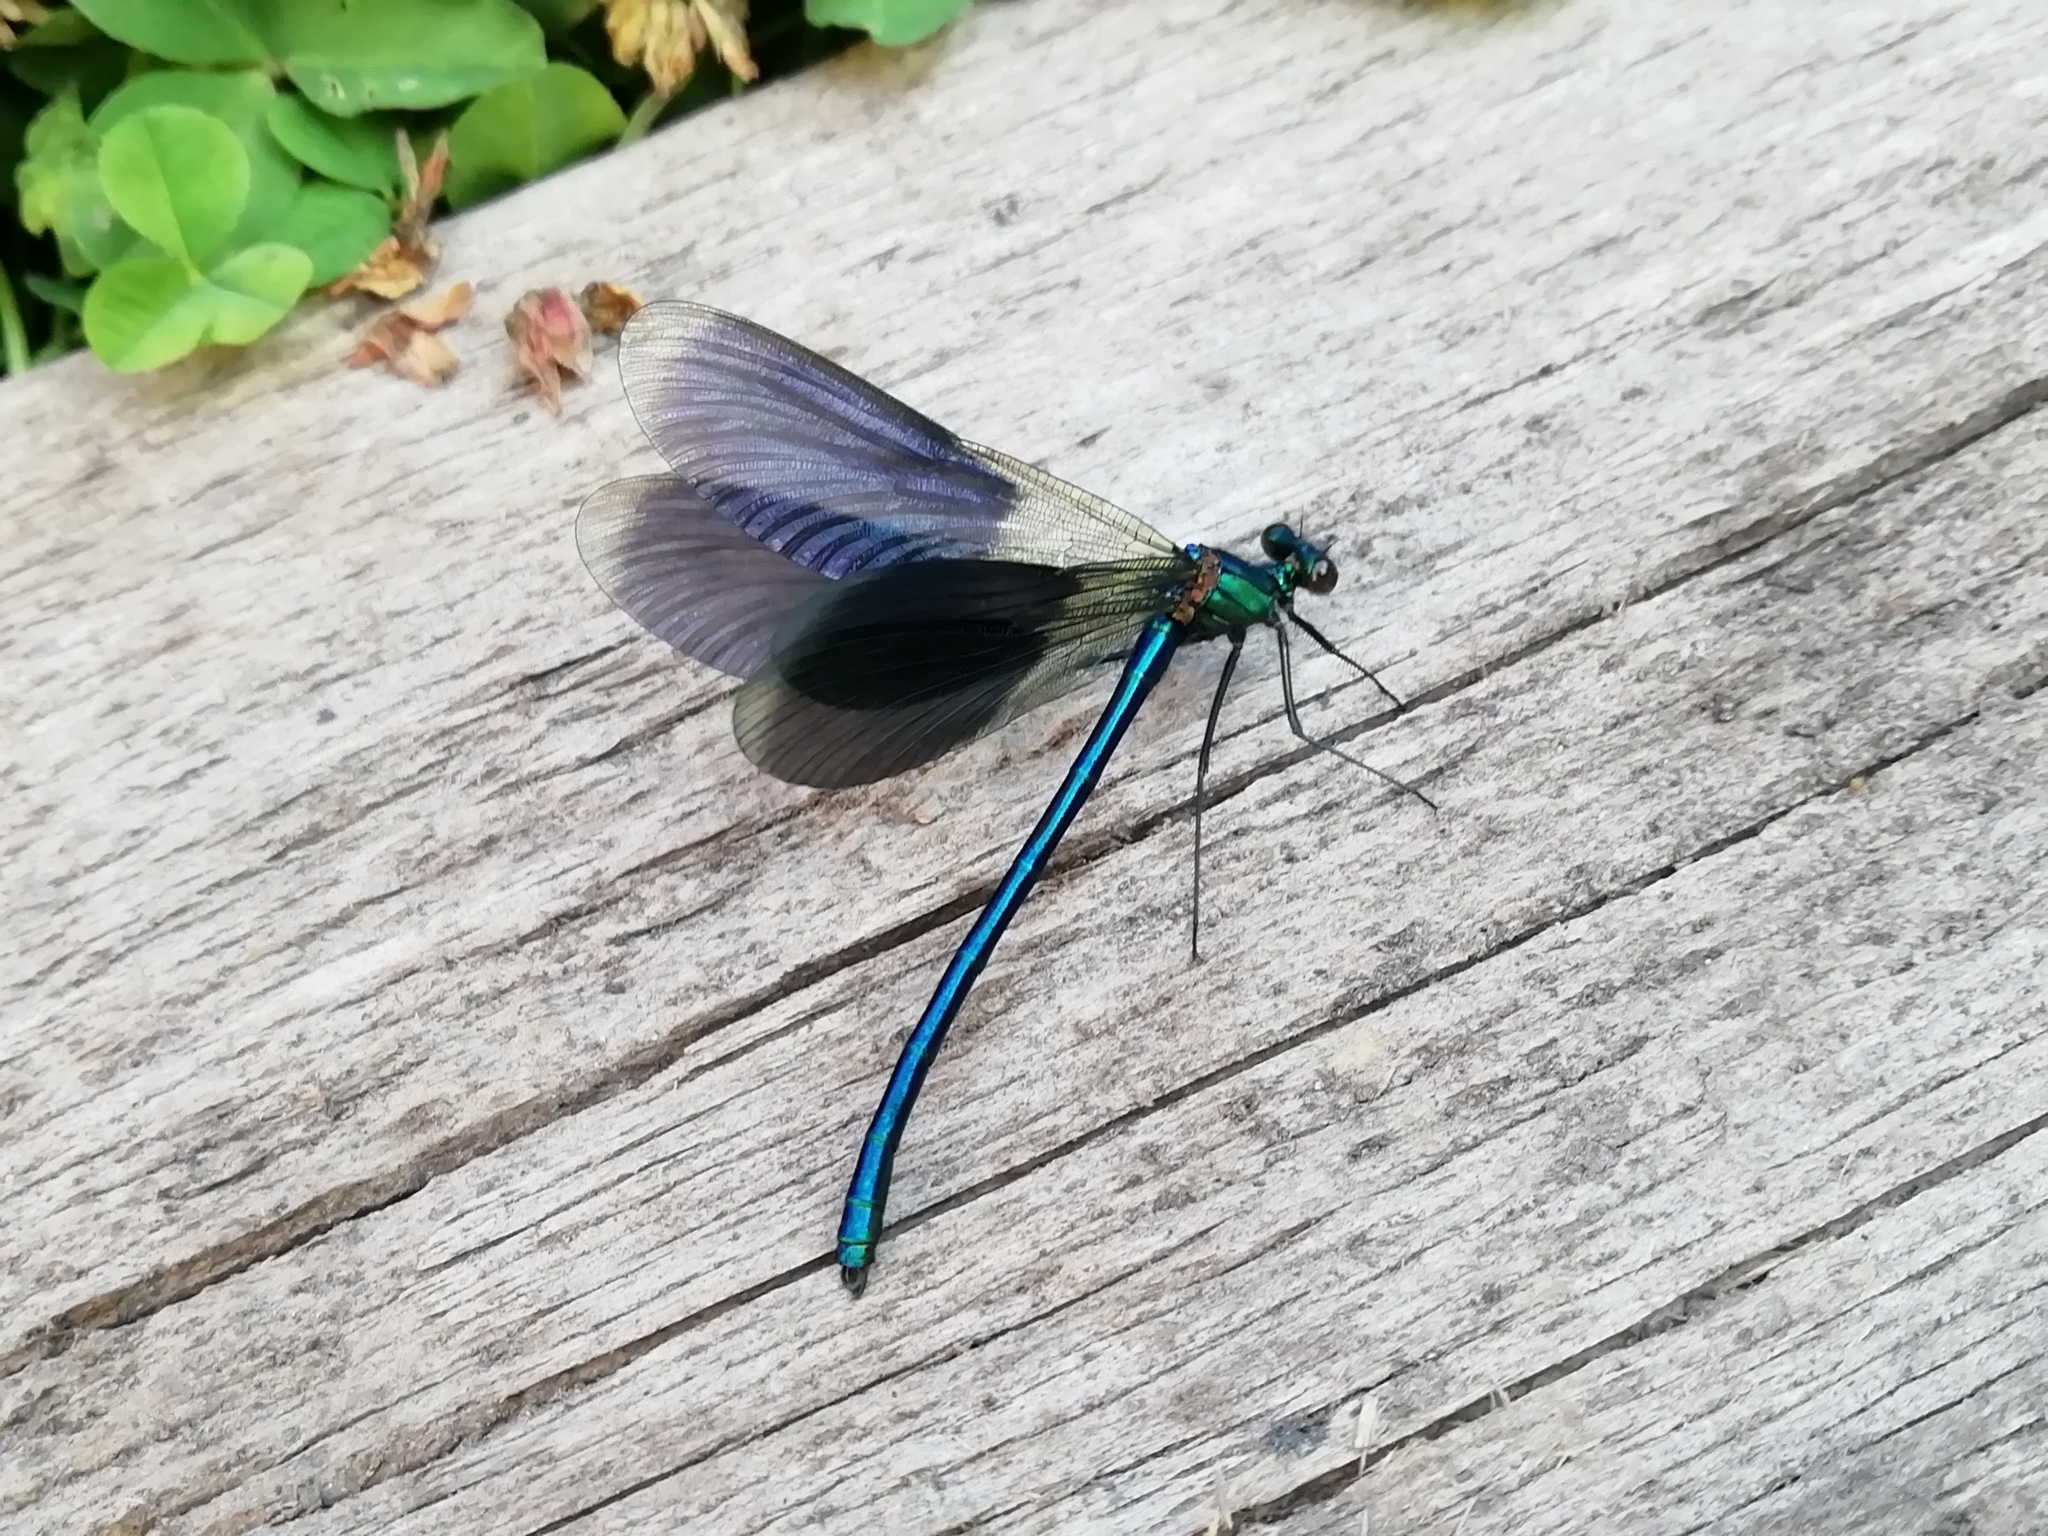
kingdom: Animalia
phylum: Arthropoda
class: Insecta
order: Odonata
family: Calopterygidae
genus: Calopteryx
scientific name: Calopteryx splendens
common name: Banded demoiselle
